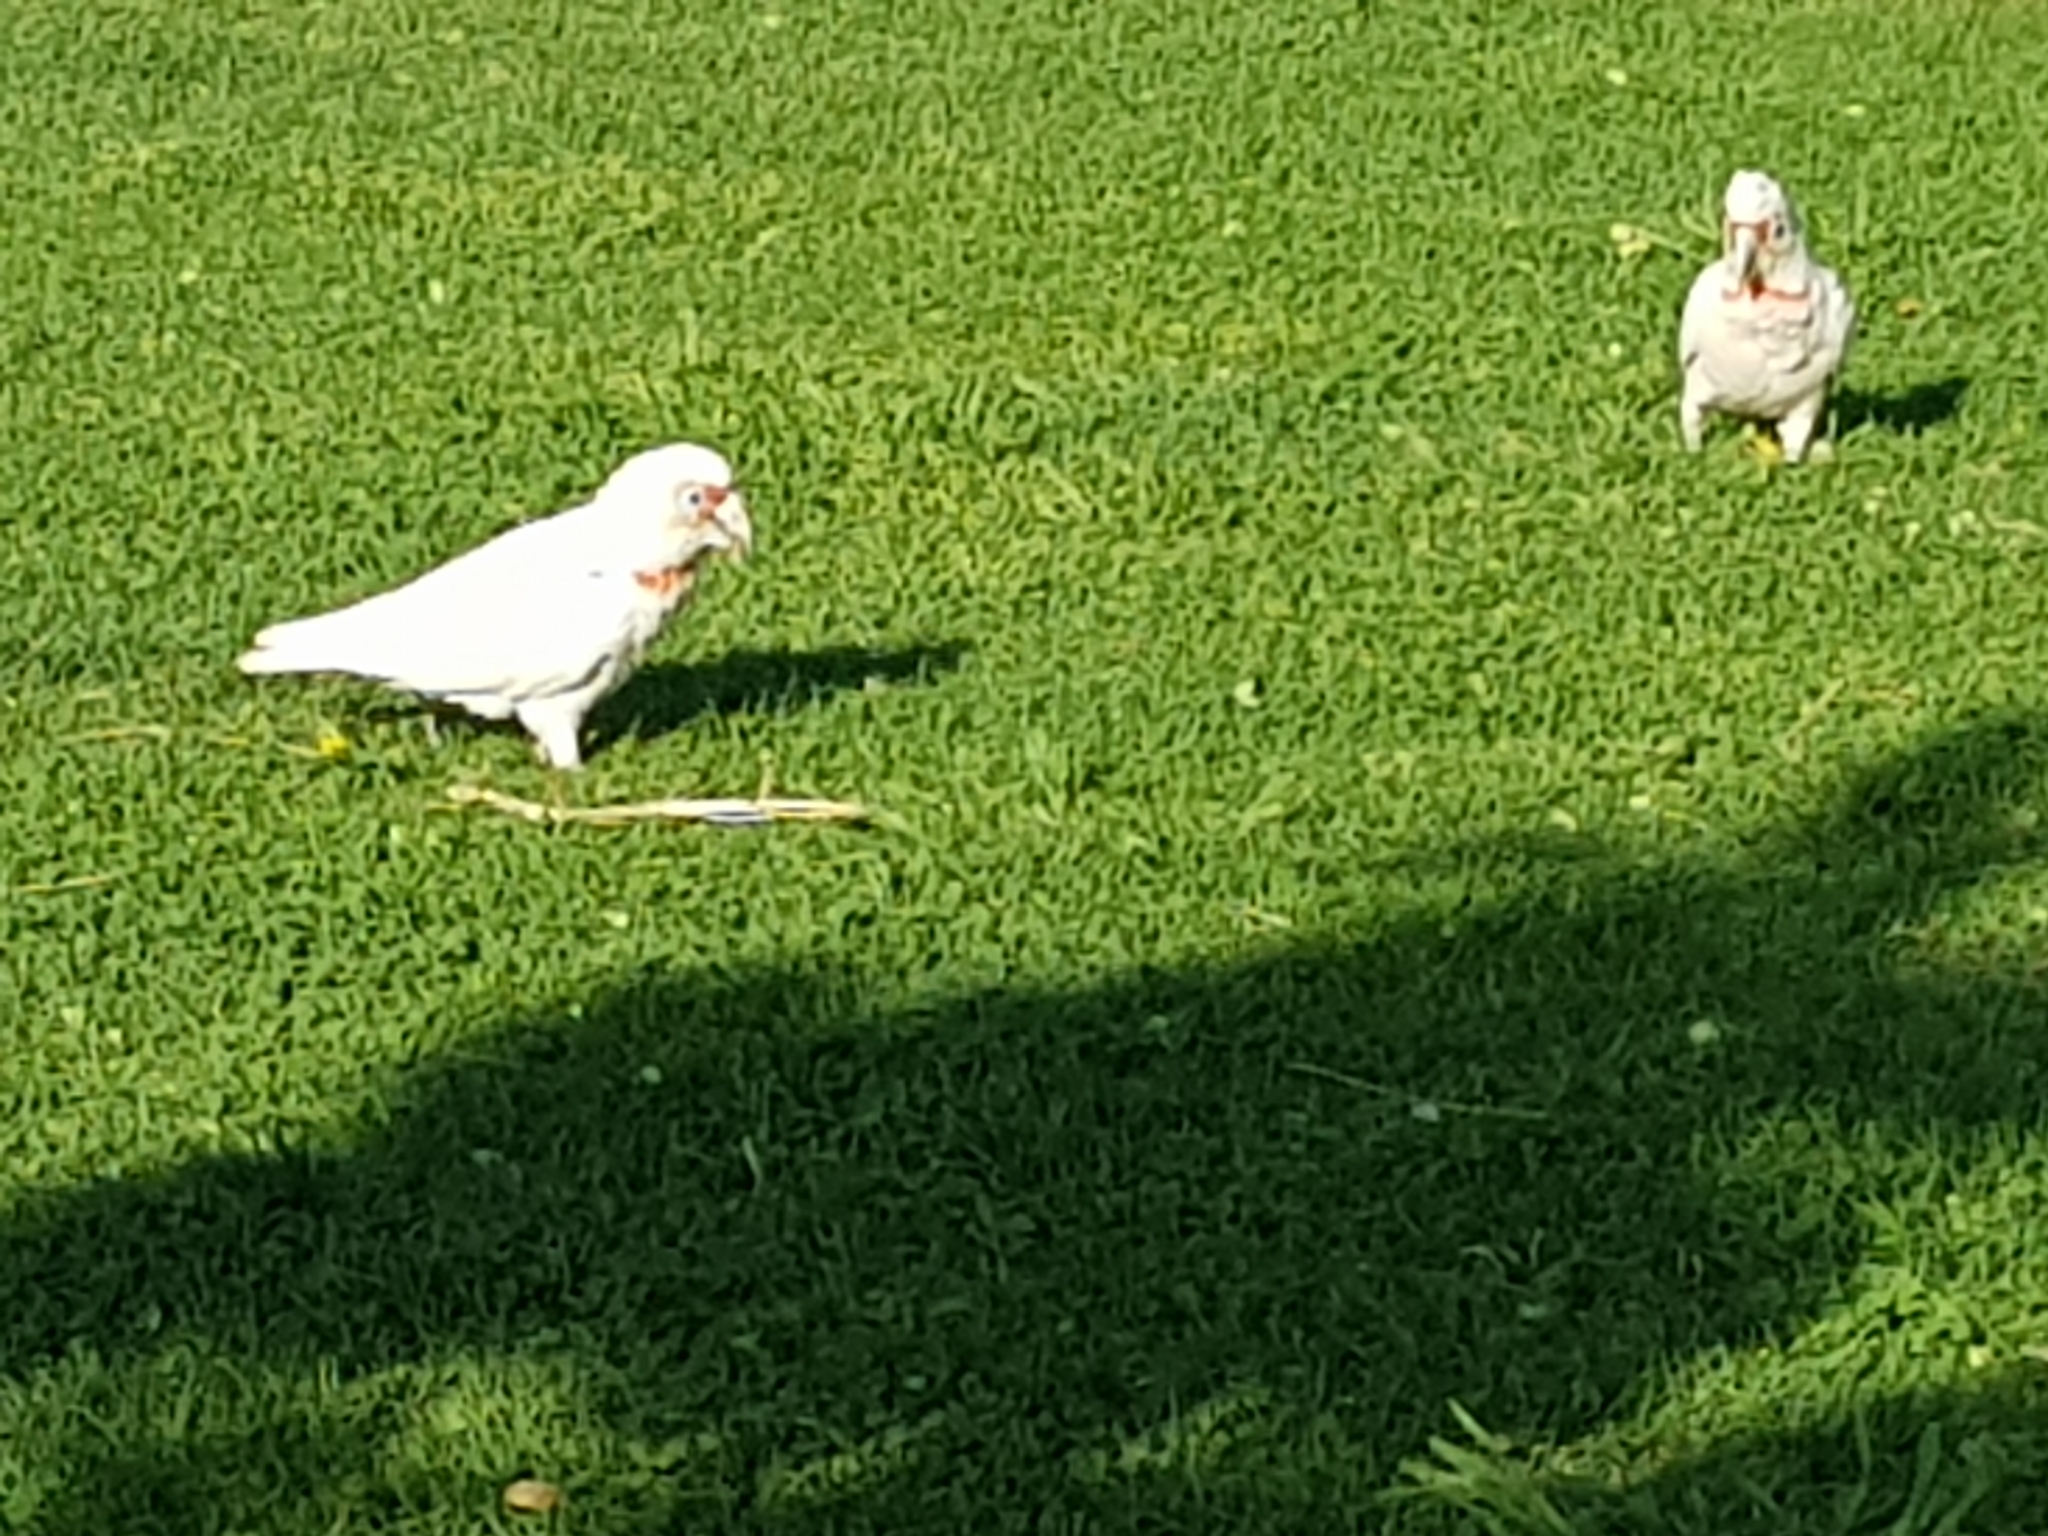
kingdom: Animalia
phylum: Chordata
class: Aves
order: Psittaciformes
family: Psittacidae
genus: Cacatua
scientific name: Cacatua tenuirostris
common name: Long-billed corella
